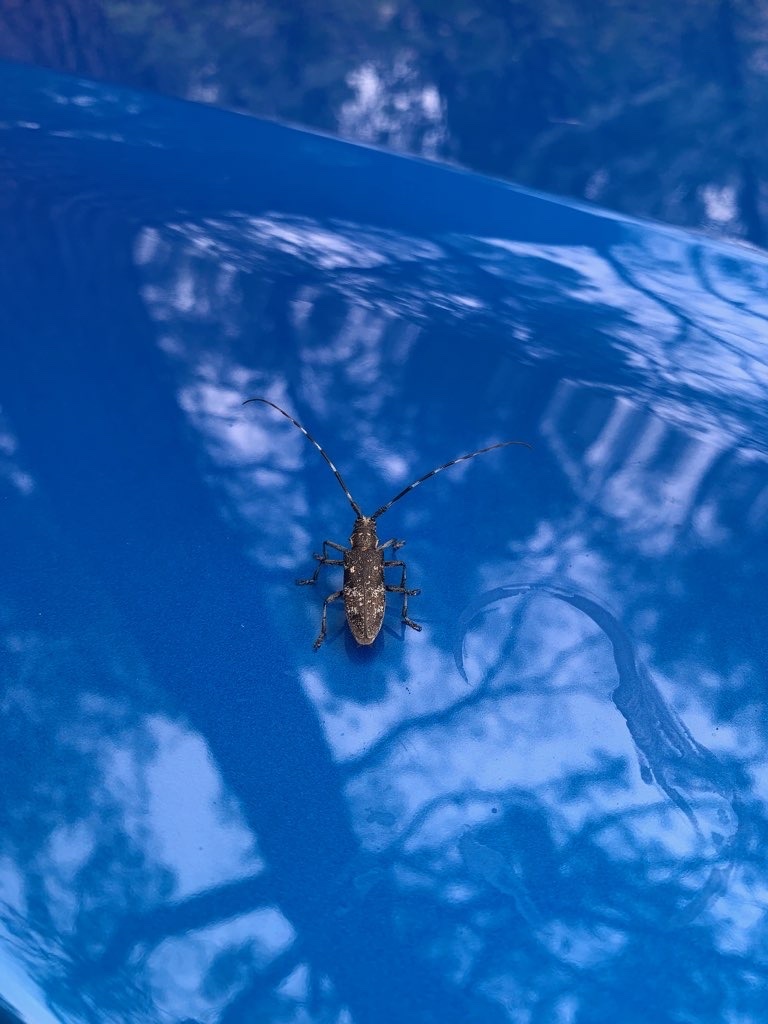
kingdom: Animalia
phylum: Arthropoda
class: Insecta
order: Coleoptera
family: Cerambycidae
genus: Monochamus
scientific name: Monochamus galloprovincialis
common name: Pine sawyer
